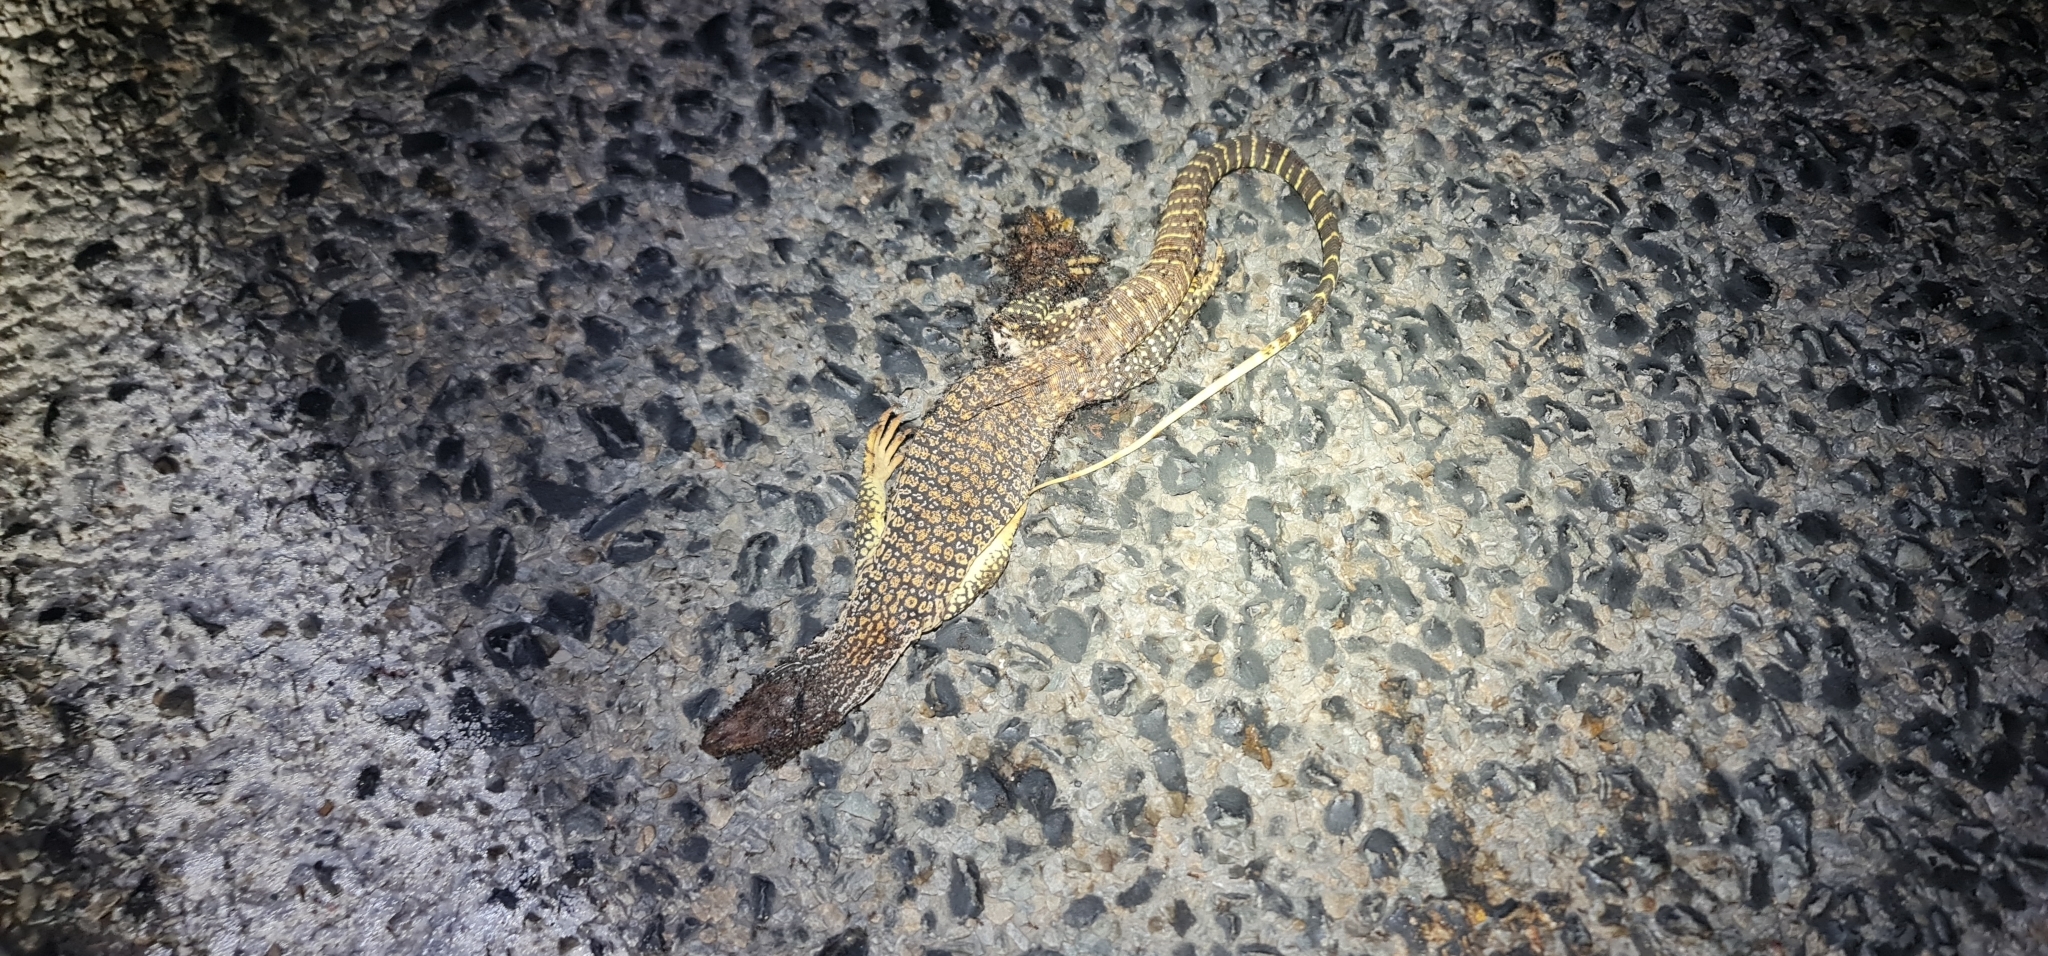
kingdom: Animalia
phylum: Chordata
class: Squamata
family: Varanidae
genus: Varanus
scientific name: Varanus gouldii
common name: Gould's goanna
